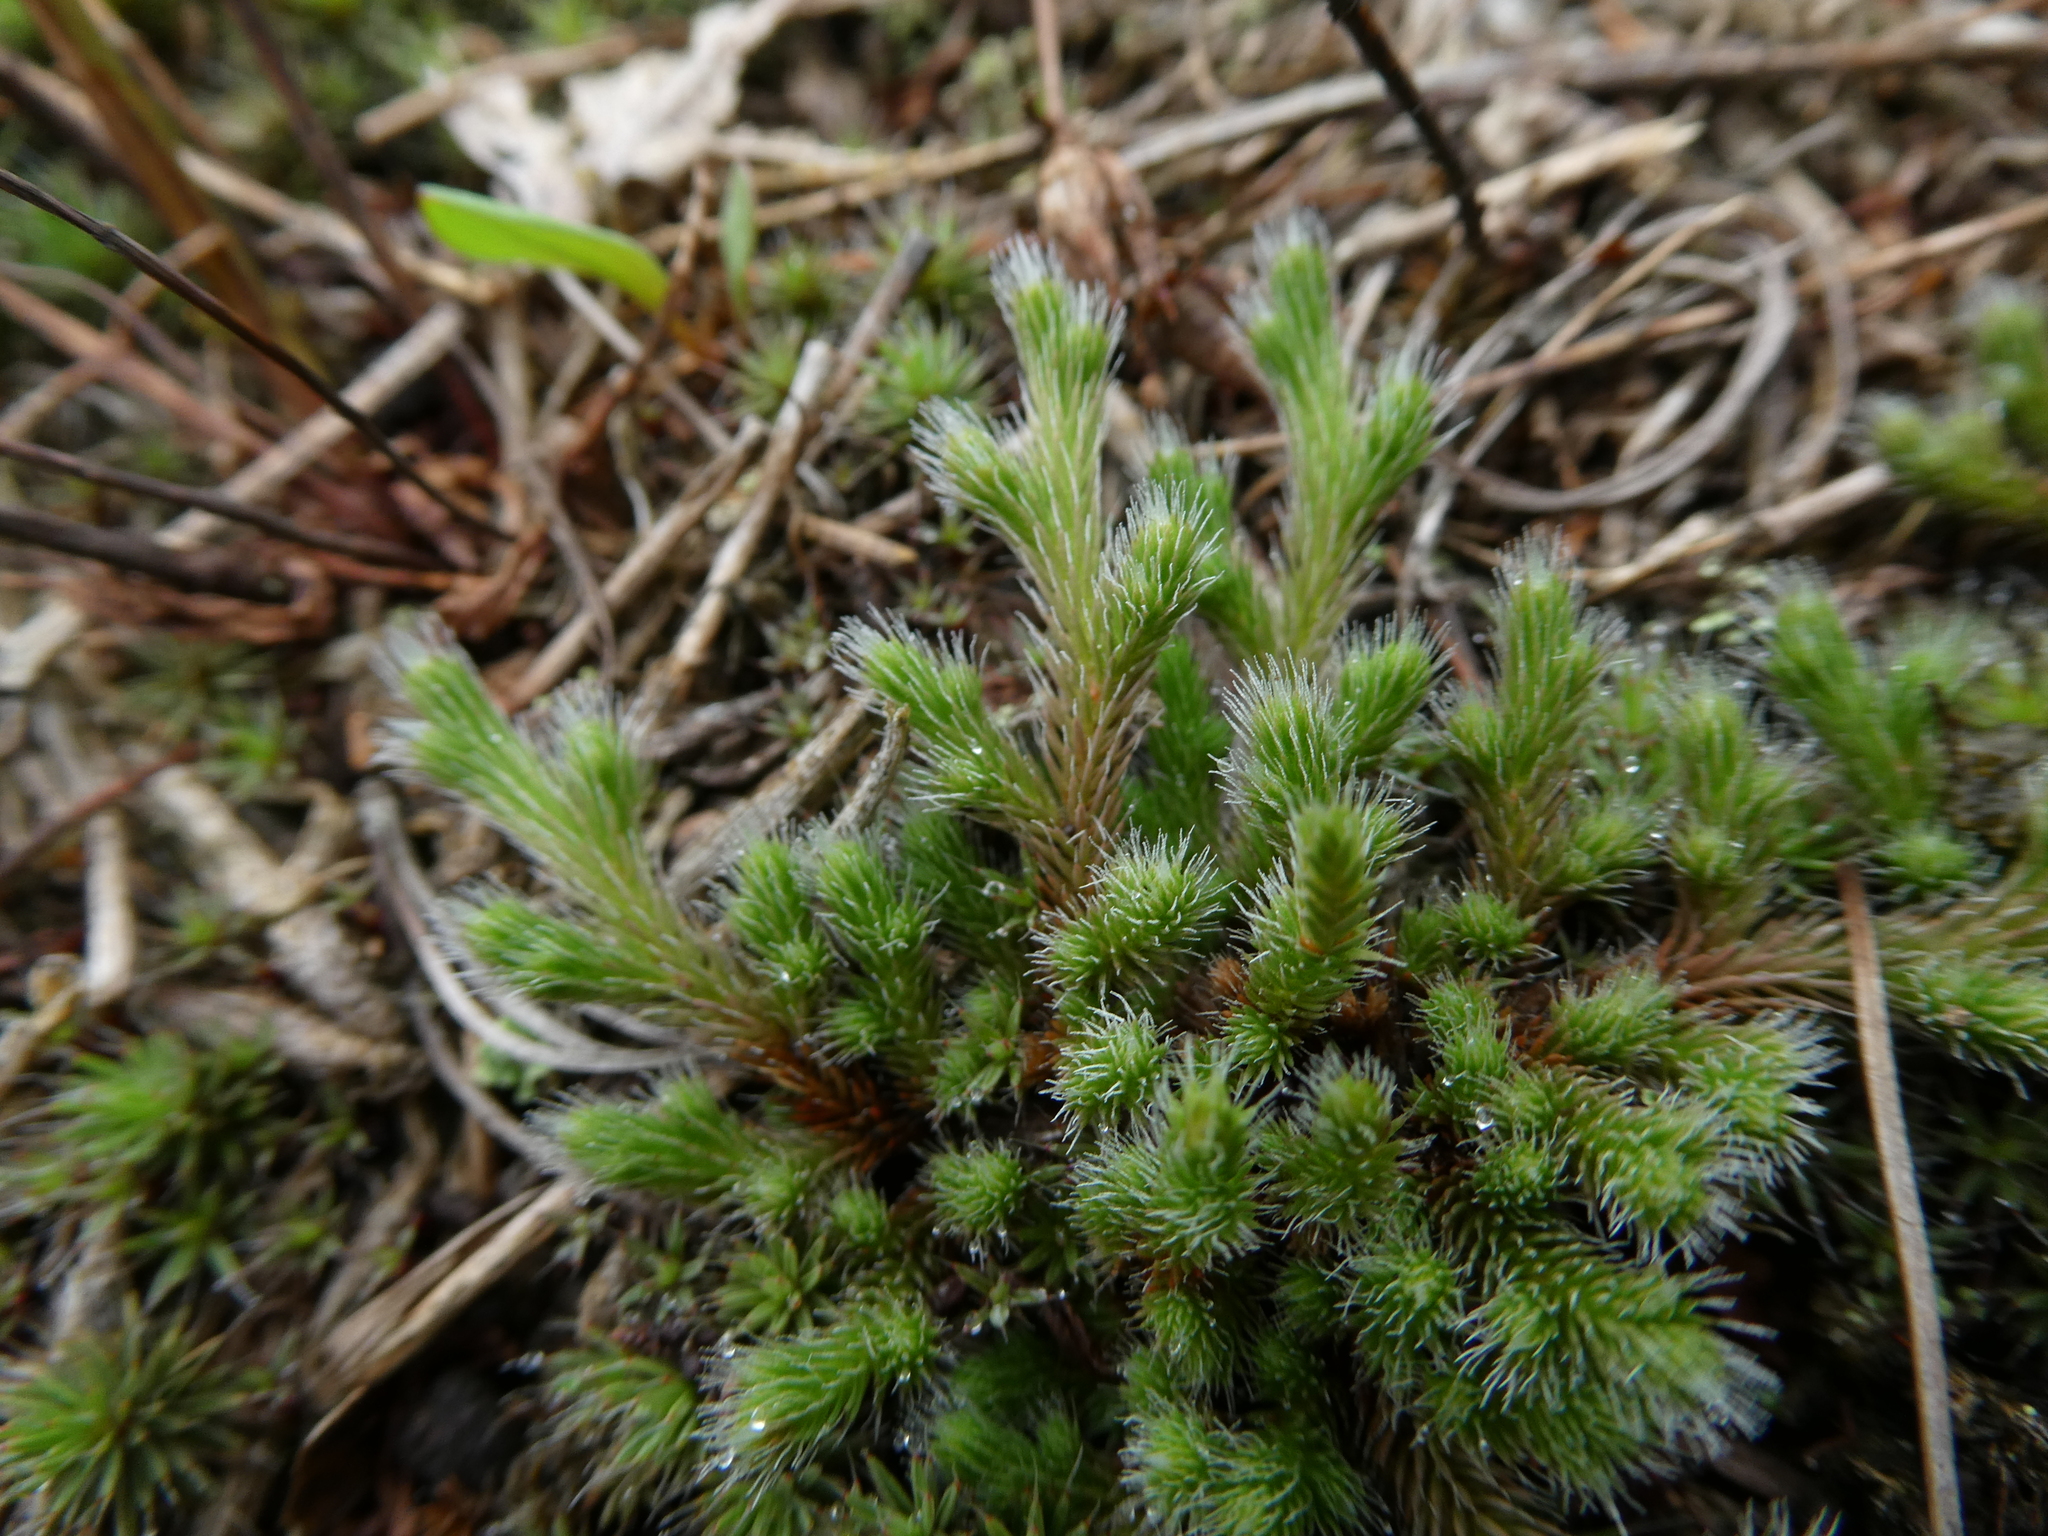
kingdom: Plantae
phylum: Tracheophyta
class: Lycopodiopsida
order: Selaginellales
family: Selaginellaceae
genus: Selaginella
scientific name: Selaginella rupestris
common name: Dwarf spikemoss
